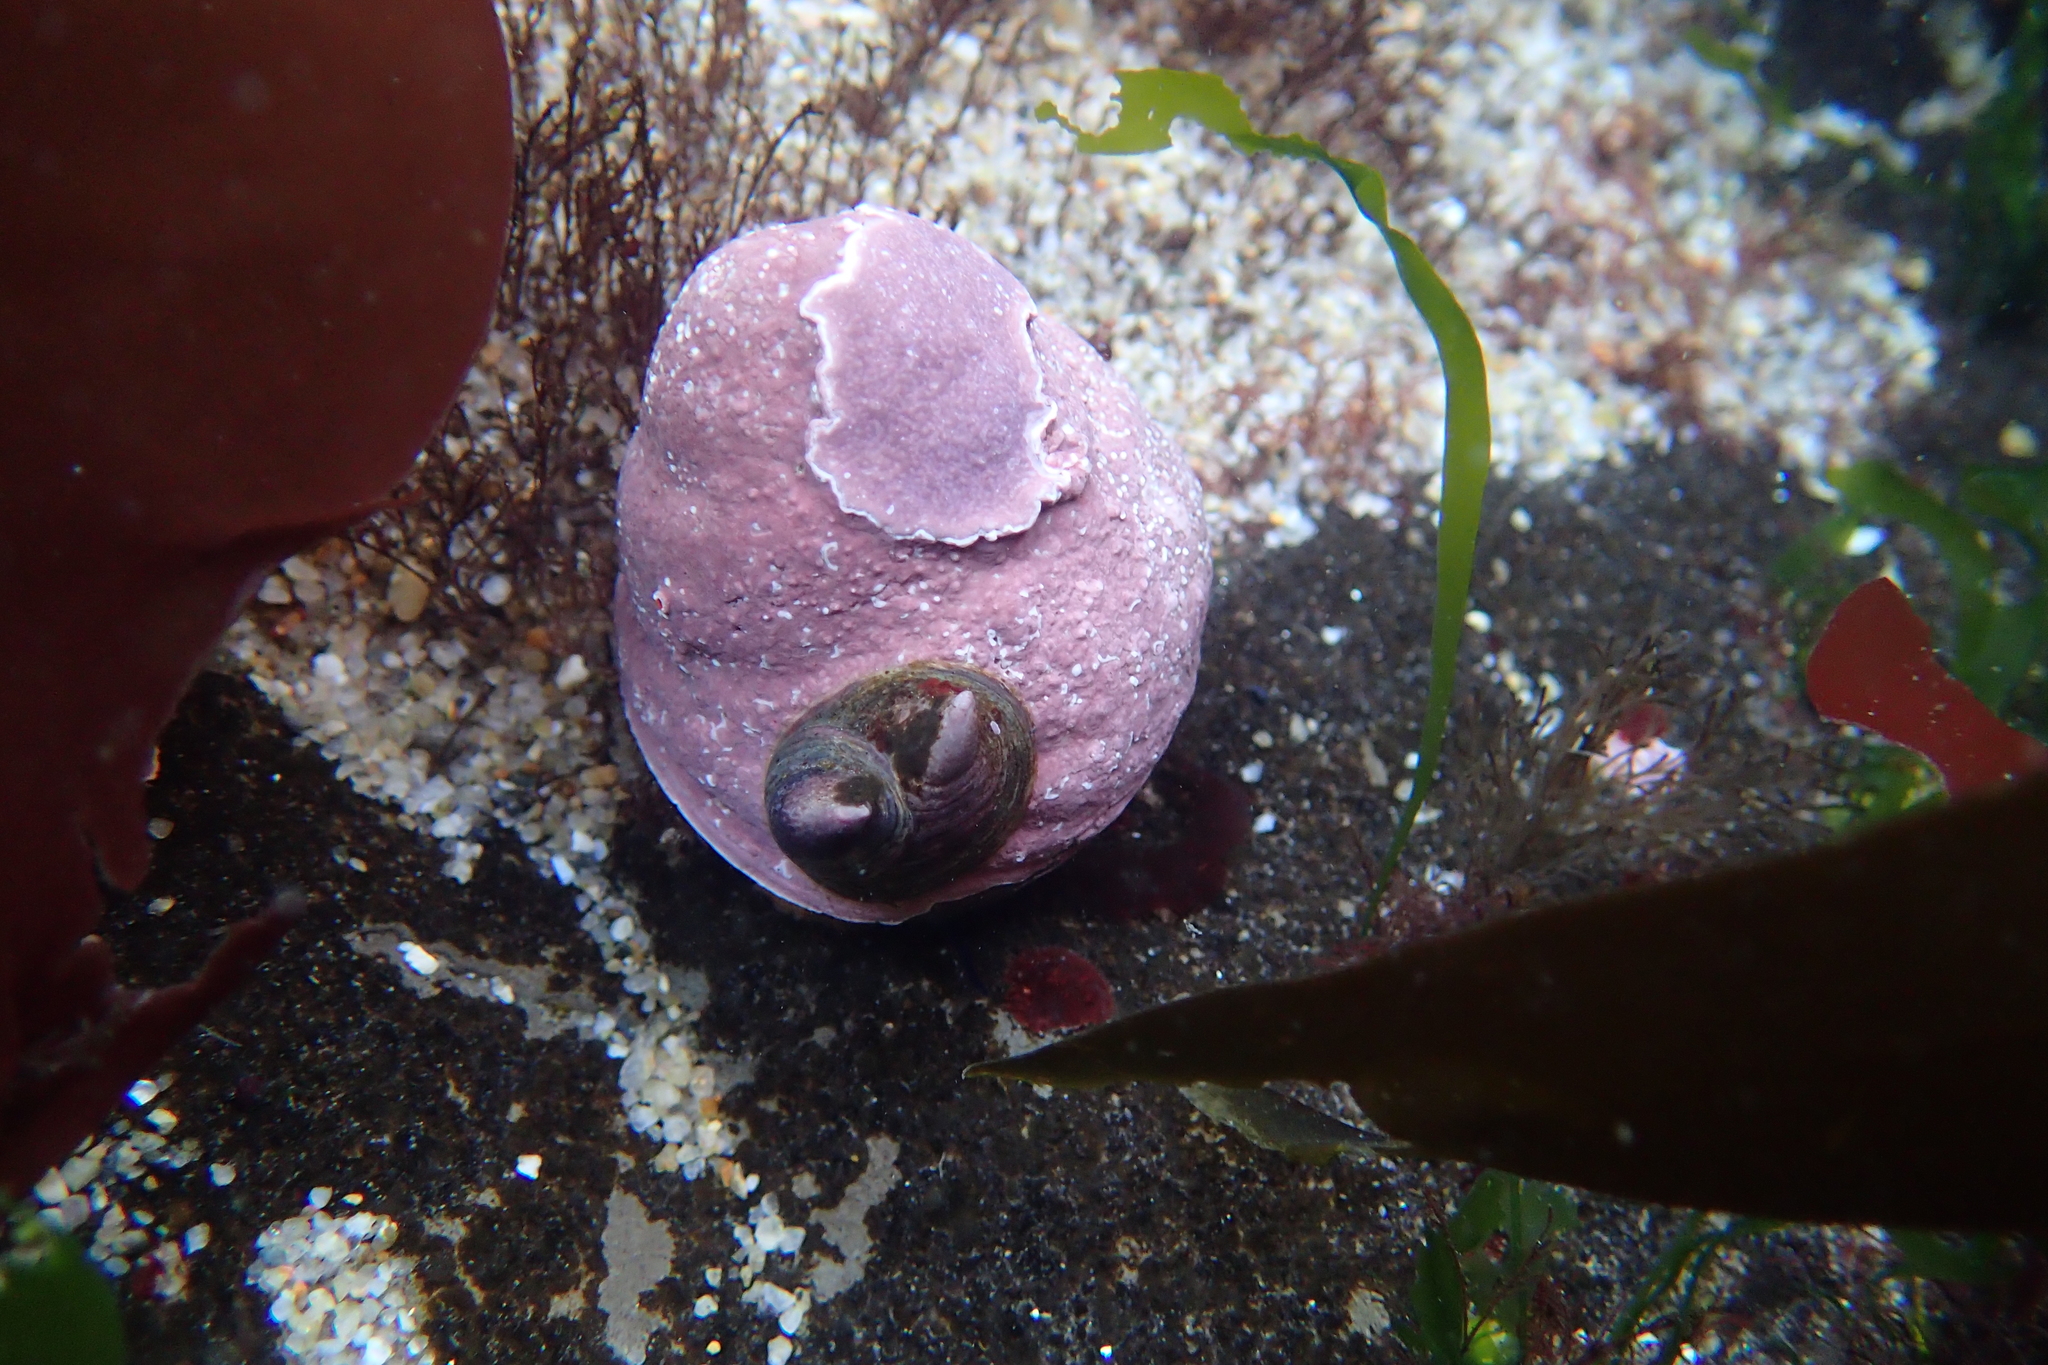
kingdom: Animalia
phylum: Mollusca
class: Gastropoda
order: Littorinimorpha
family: Calyptraeidae
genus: Crepidula
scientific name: Crepidula adunca
